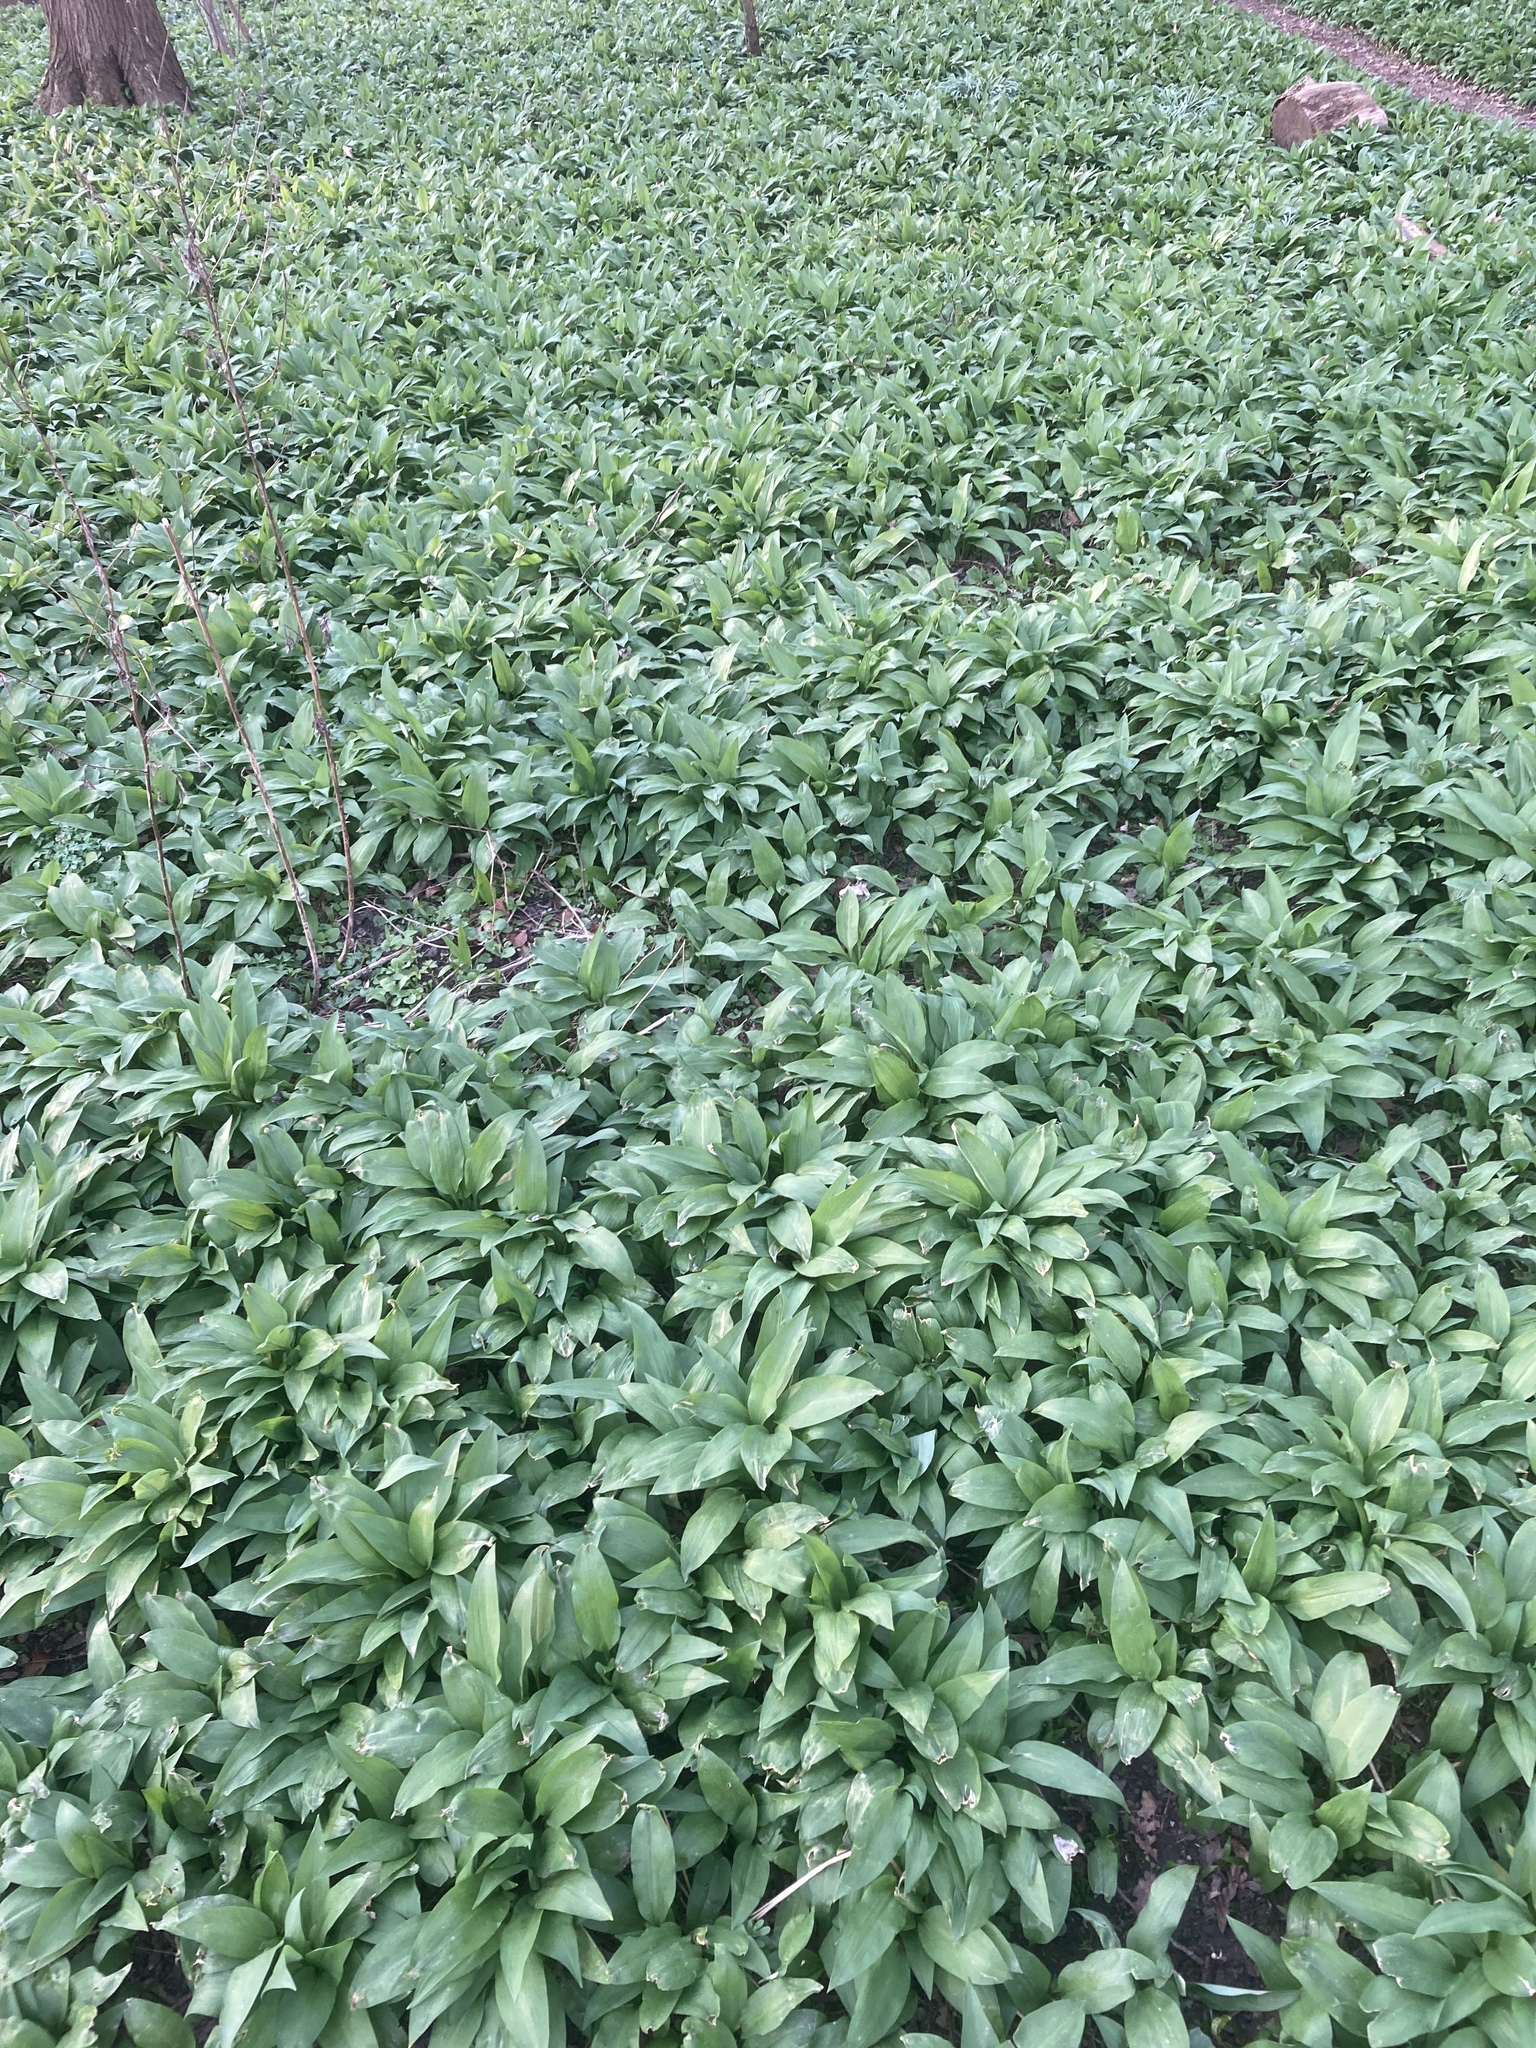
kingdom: Plantae
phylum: Tracheophyta
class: Liliopsida
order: Asparagales
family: Amaryllidaceae
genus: Allium
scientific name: Allium ursinum
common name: Ramsons
